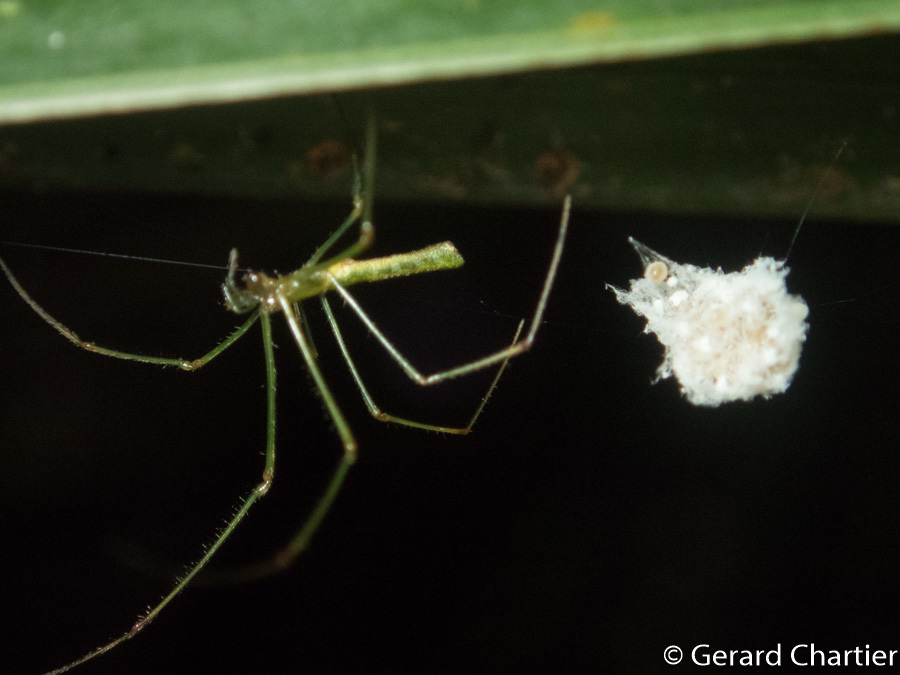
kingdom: Animalia
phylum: Arthropoda
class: Arachnida
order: Araneae
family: Tetragnathidae
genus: Tetragnatha
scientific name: Tetragnatha hasselti
